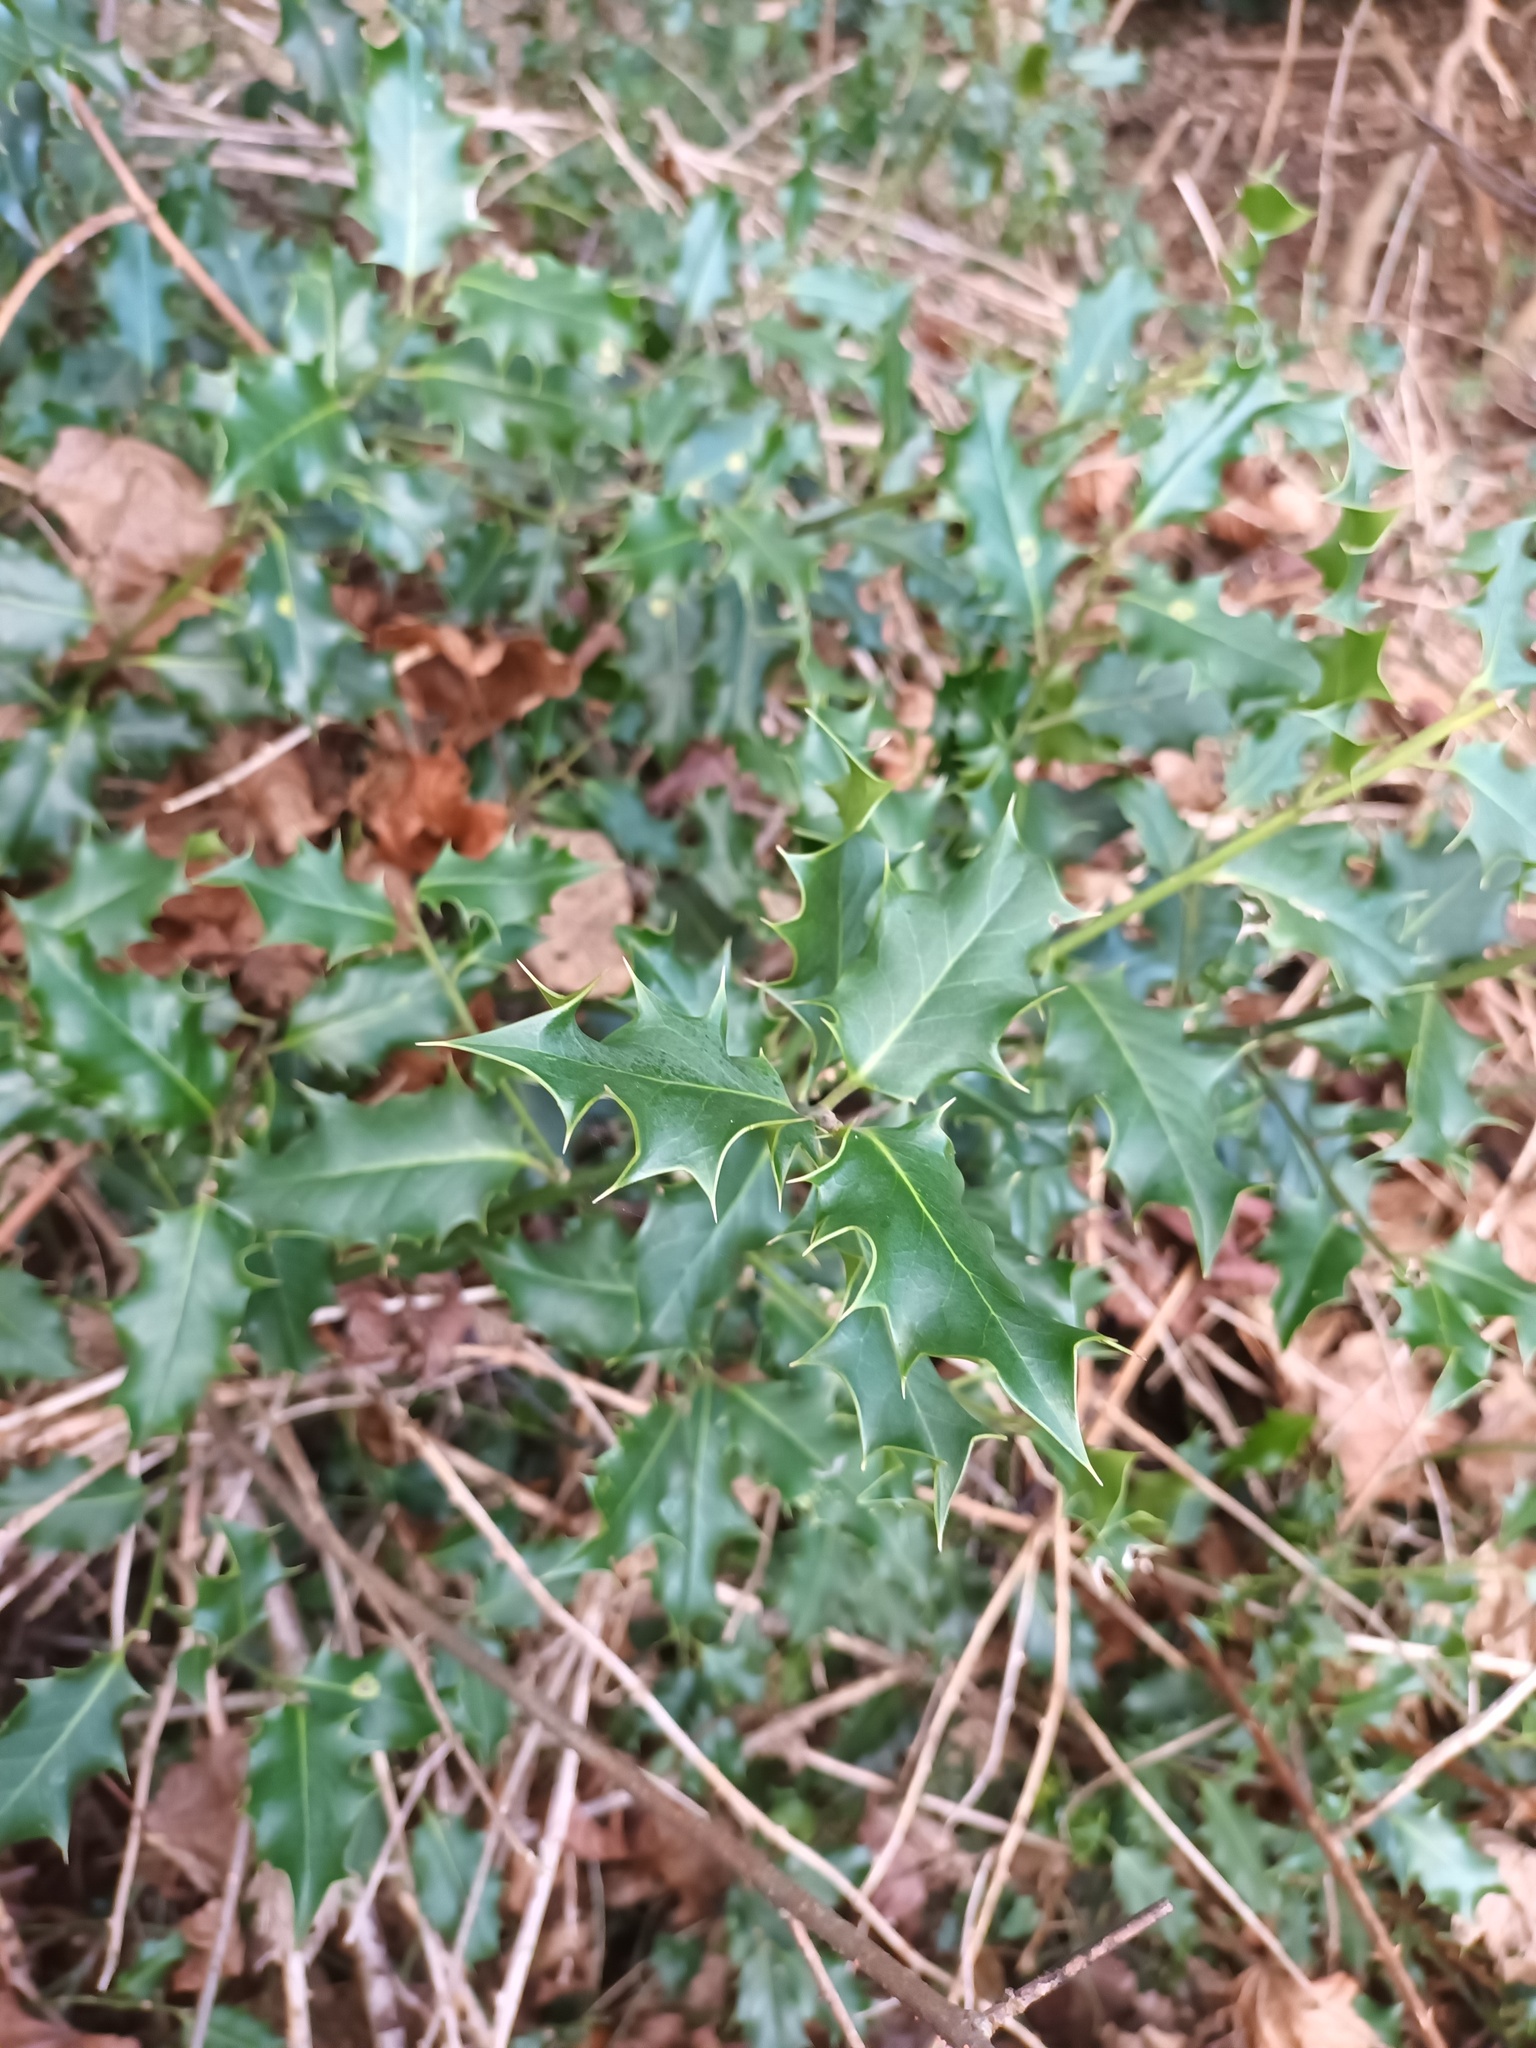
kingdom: Plantae
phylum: Tracheophyta
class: Magnoliopsida
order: Aquifoliales
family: Aquifoliaceae
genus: Ilex
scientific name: Ilex aquifolium
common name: English holly
